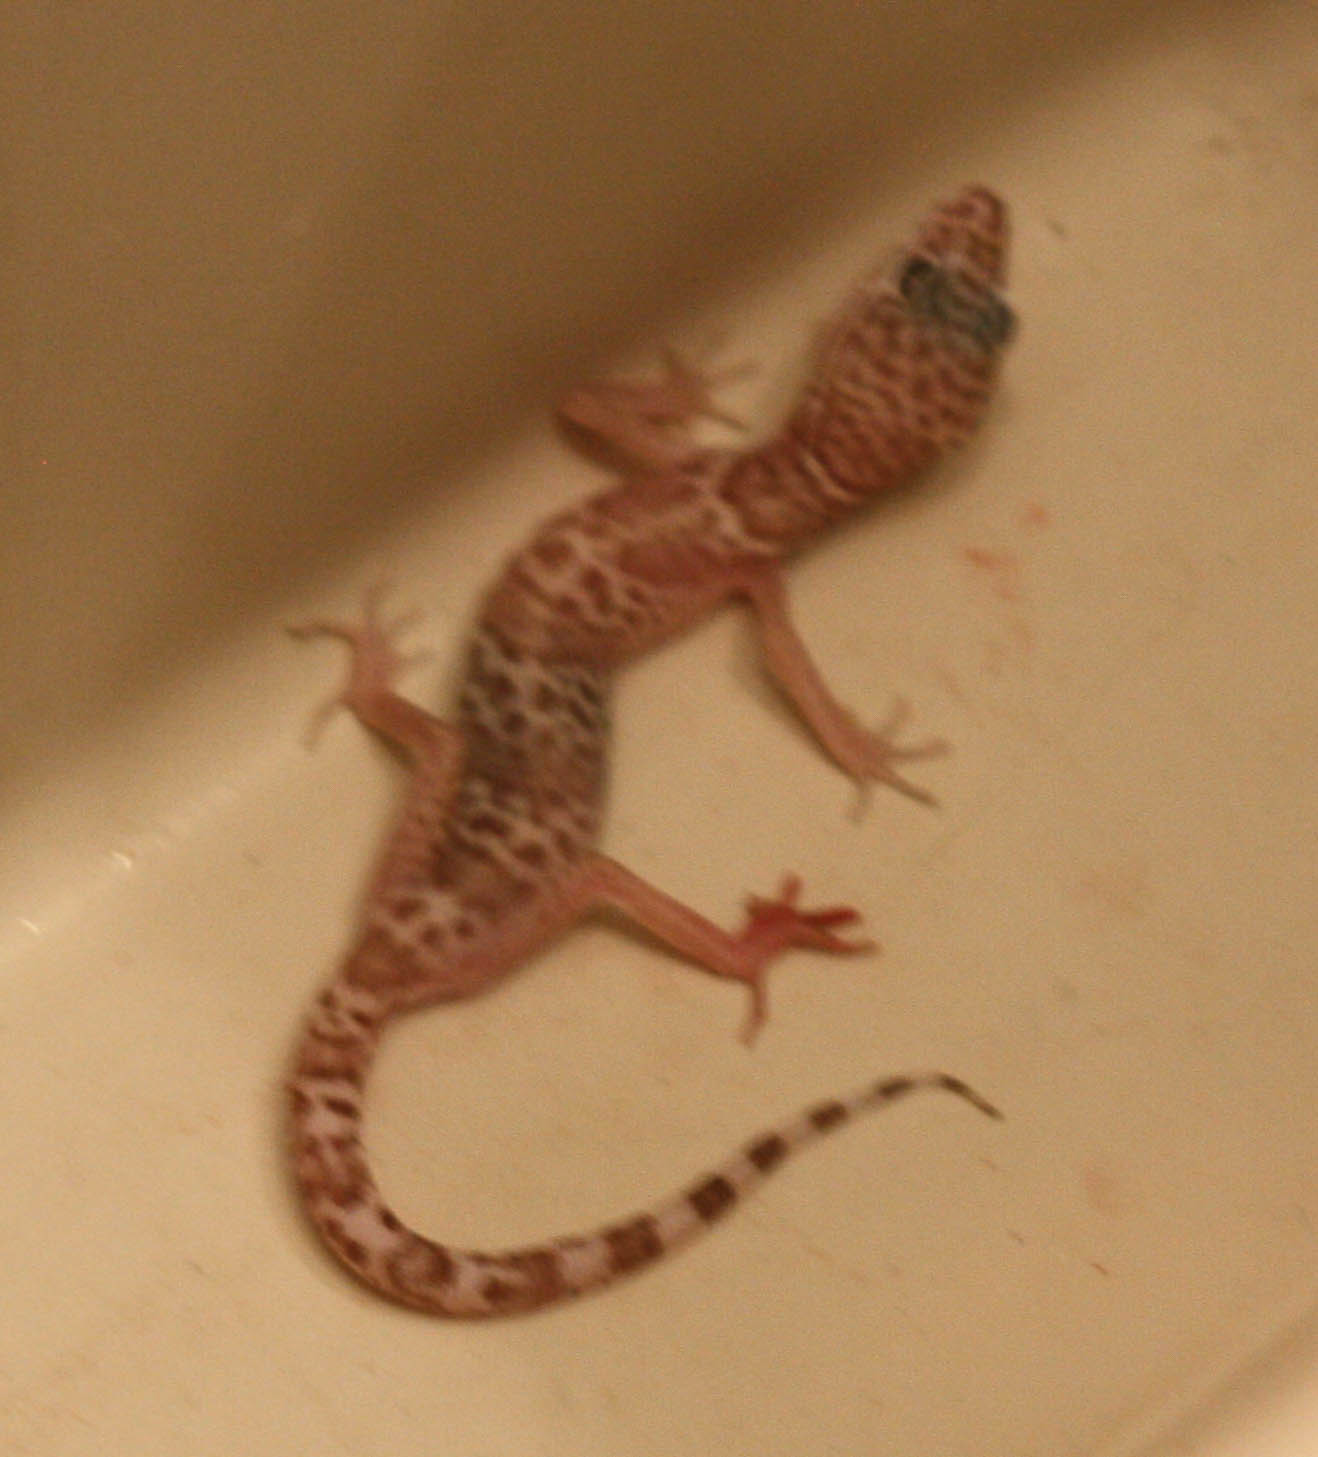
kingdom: Animalia
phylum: Chordata
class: Squamata
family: Eublepharidae
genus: Coleonyx
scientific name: Coleonyx variegatus
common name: Western banded gecko
